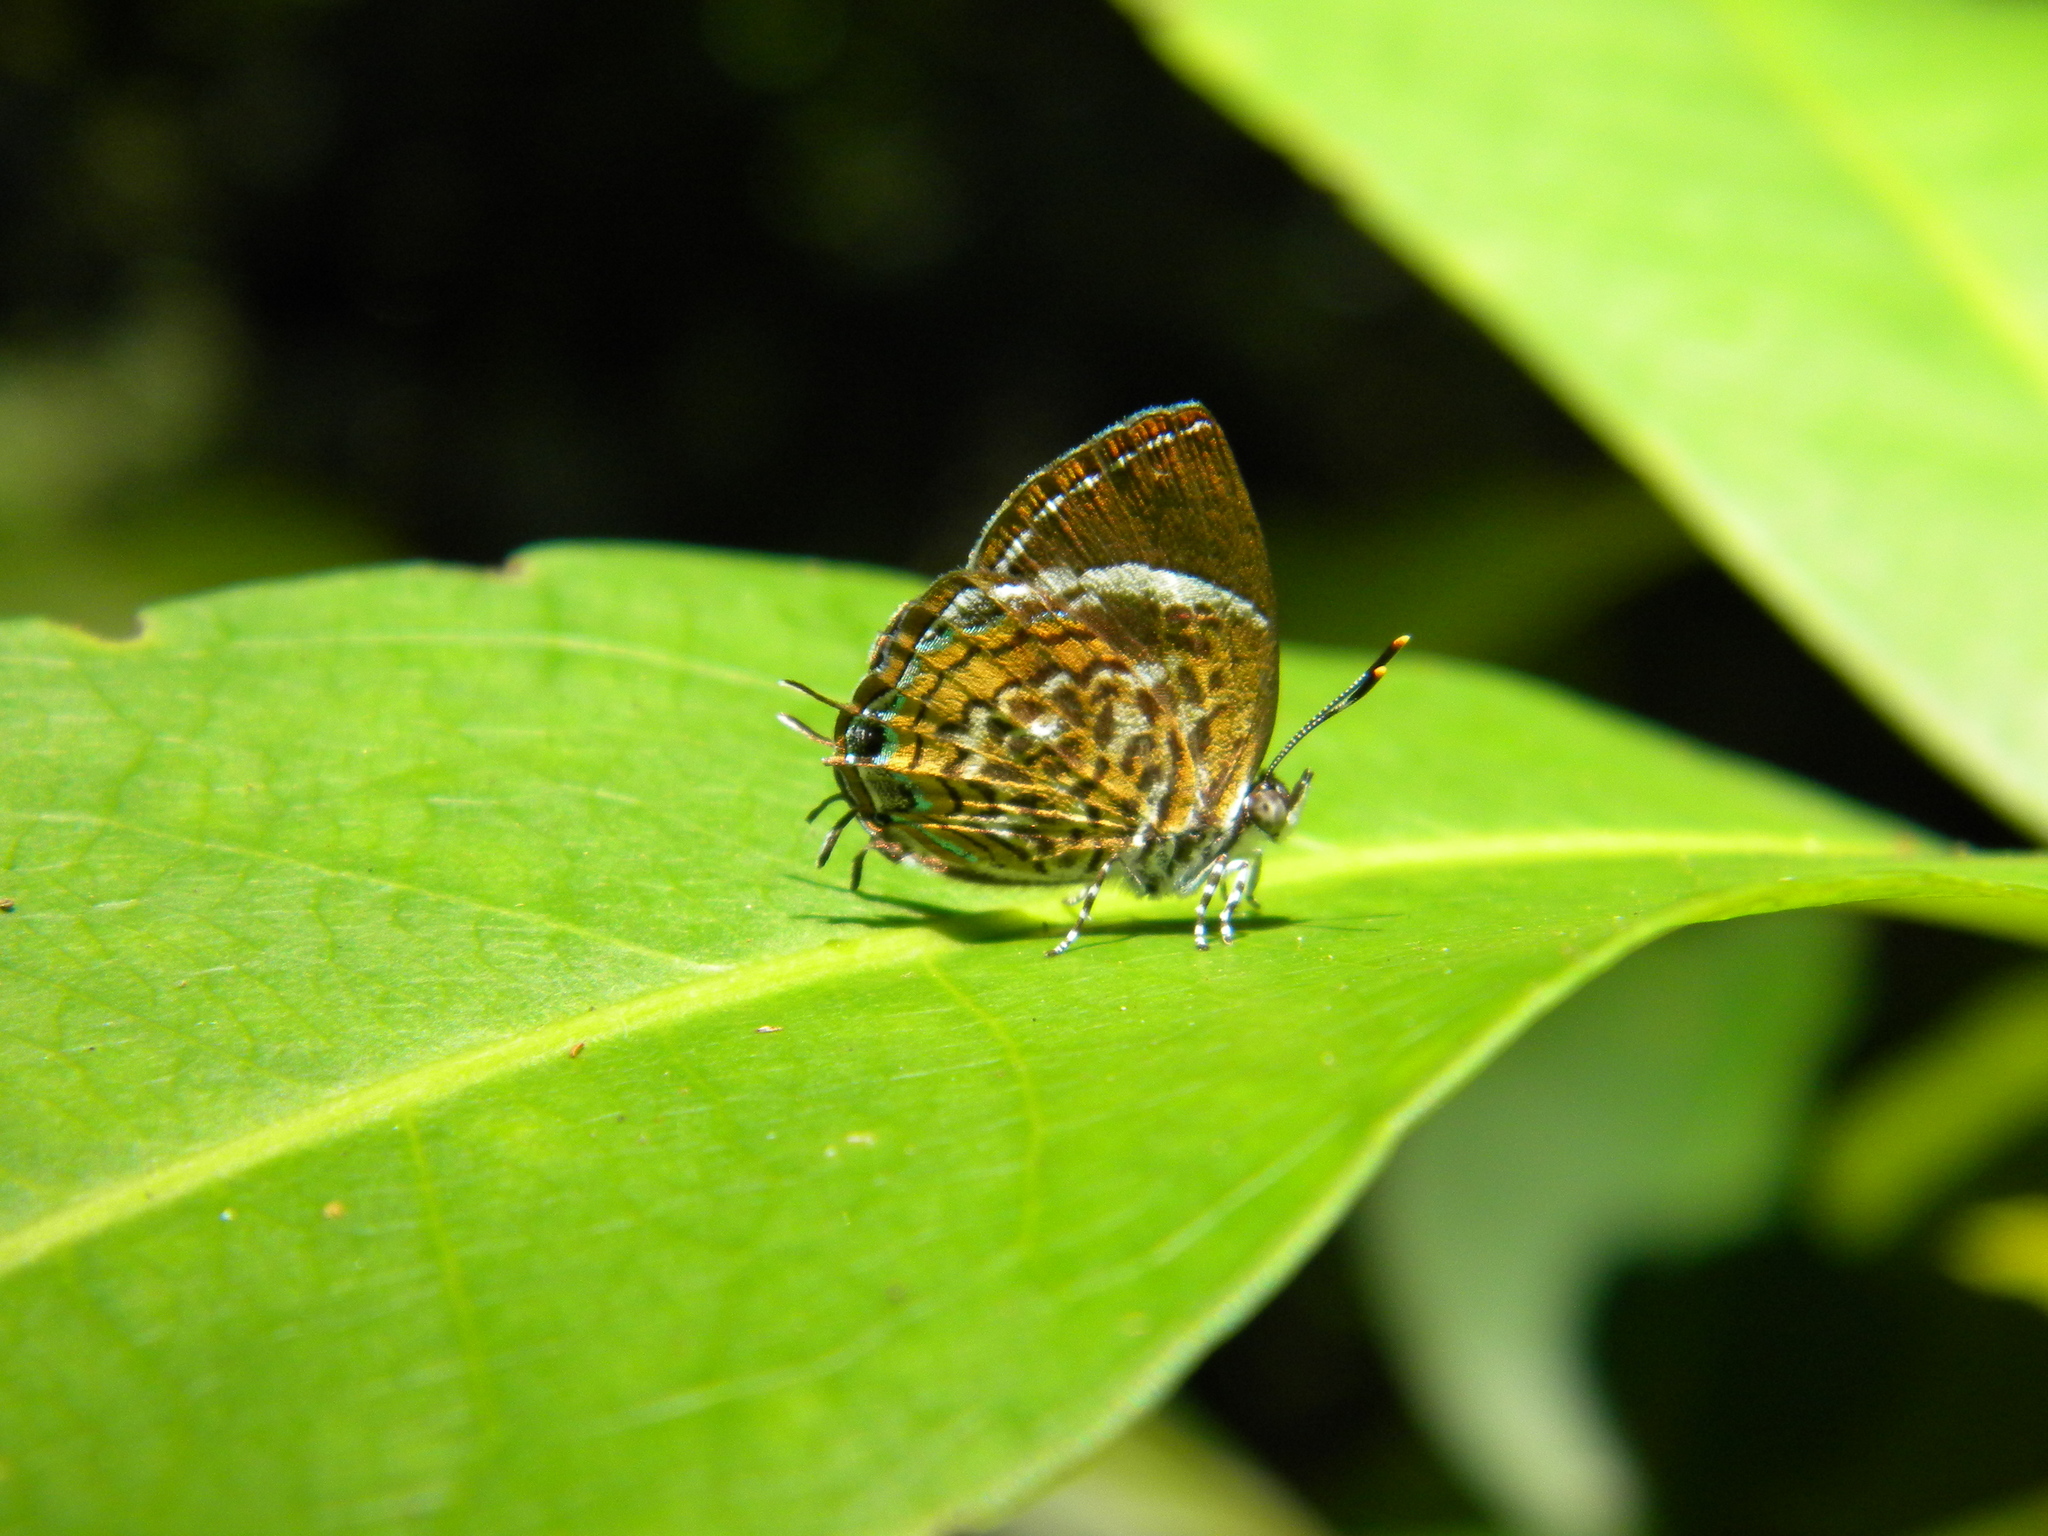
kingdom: Animalia
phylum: Arthropoda
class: Insecta
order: Lepidoptera
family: Lycaenidae
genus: Rathinda
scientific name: Rathinda amor
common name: Monkey puzzle
